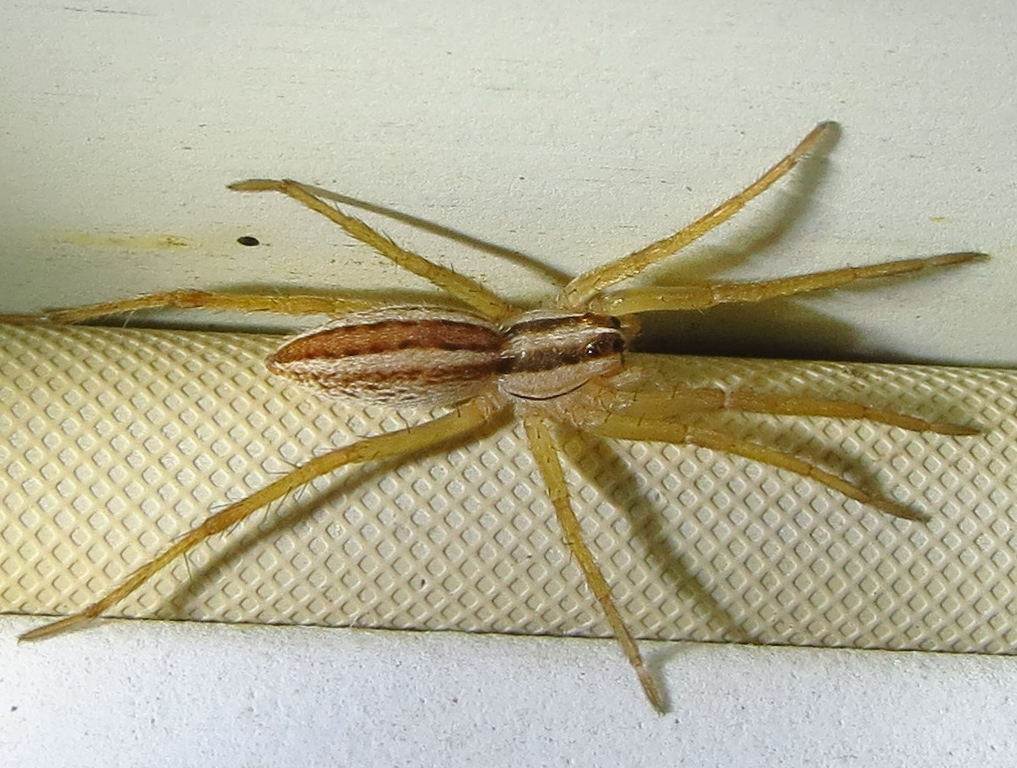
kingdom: Animalia
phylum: Arthropoda
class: Arachnida
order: Araneae
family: Lycosidae
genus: Rabidosa
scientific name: Rabidosa rabida
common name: Rabid wolf spider
